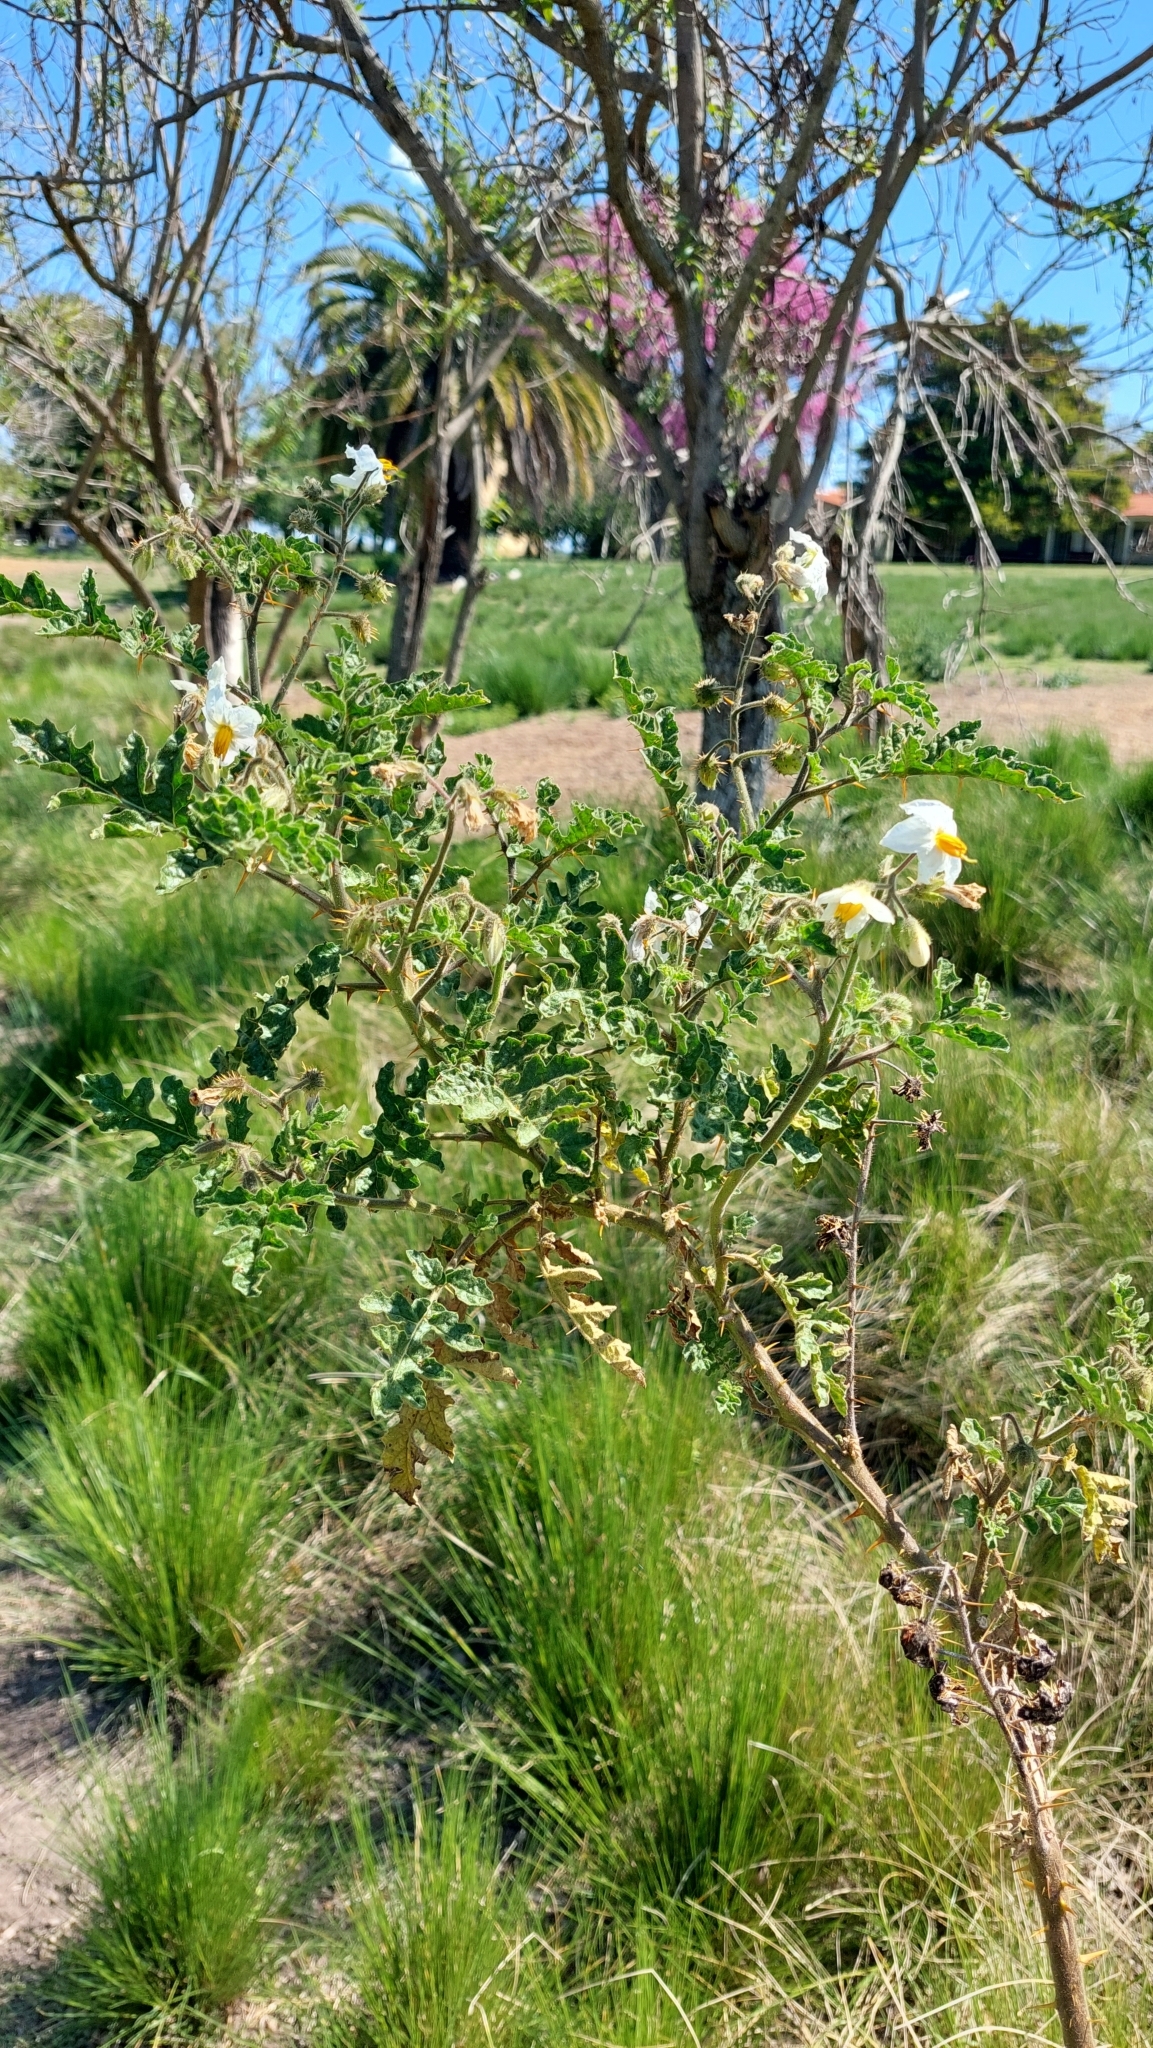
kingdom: Plantae
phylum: Tracheophyta
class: Magnoliopsida
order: Solanales
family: Solanaceae
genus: Solanum
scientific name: Solanum sisymbriifolium
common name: Red buffalo-bur
